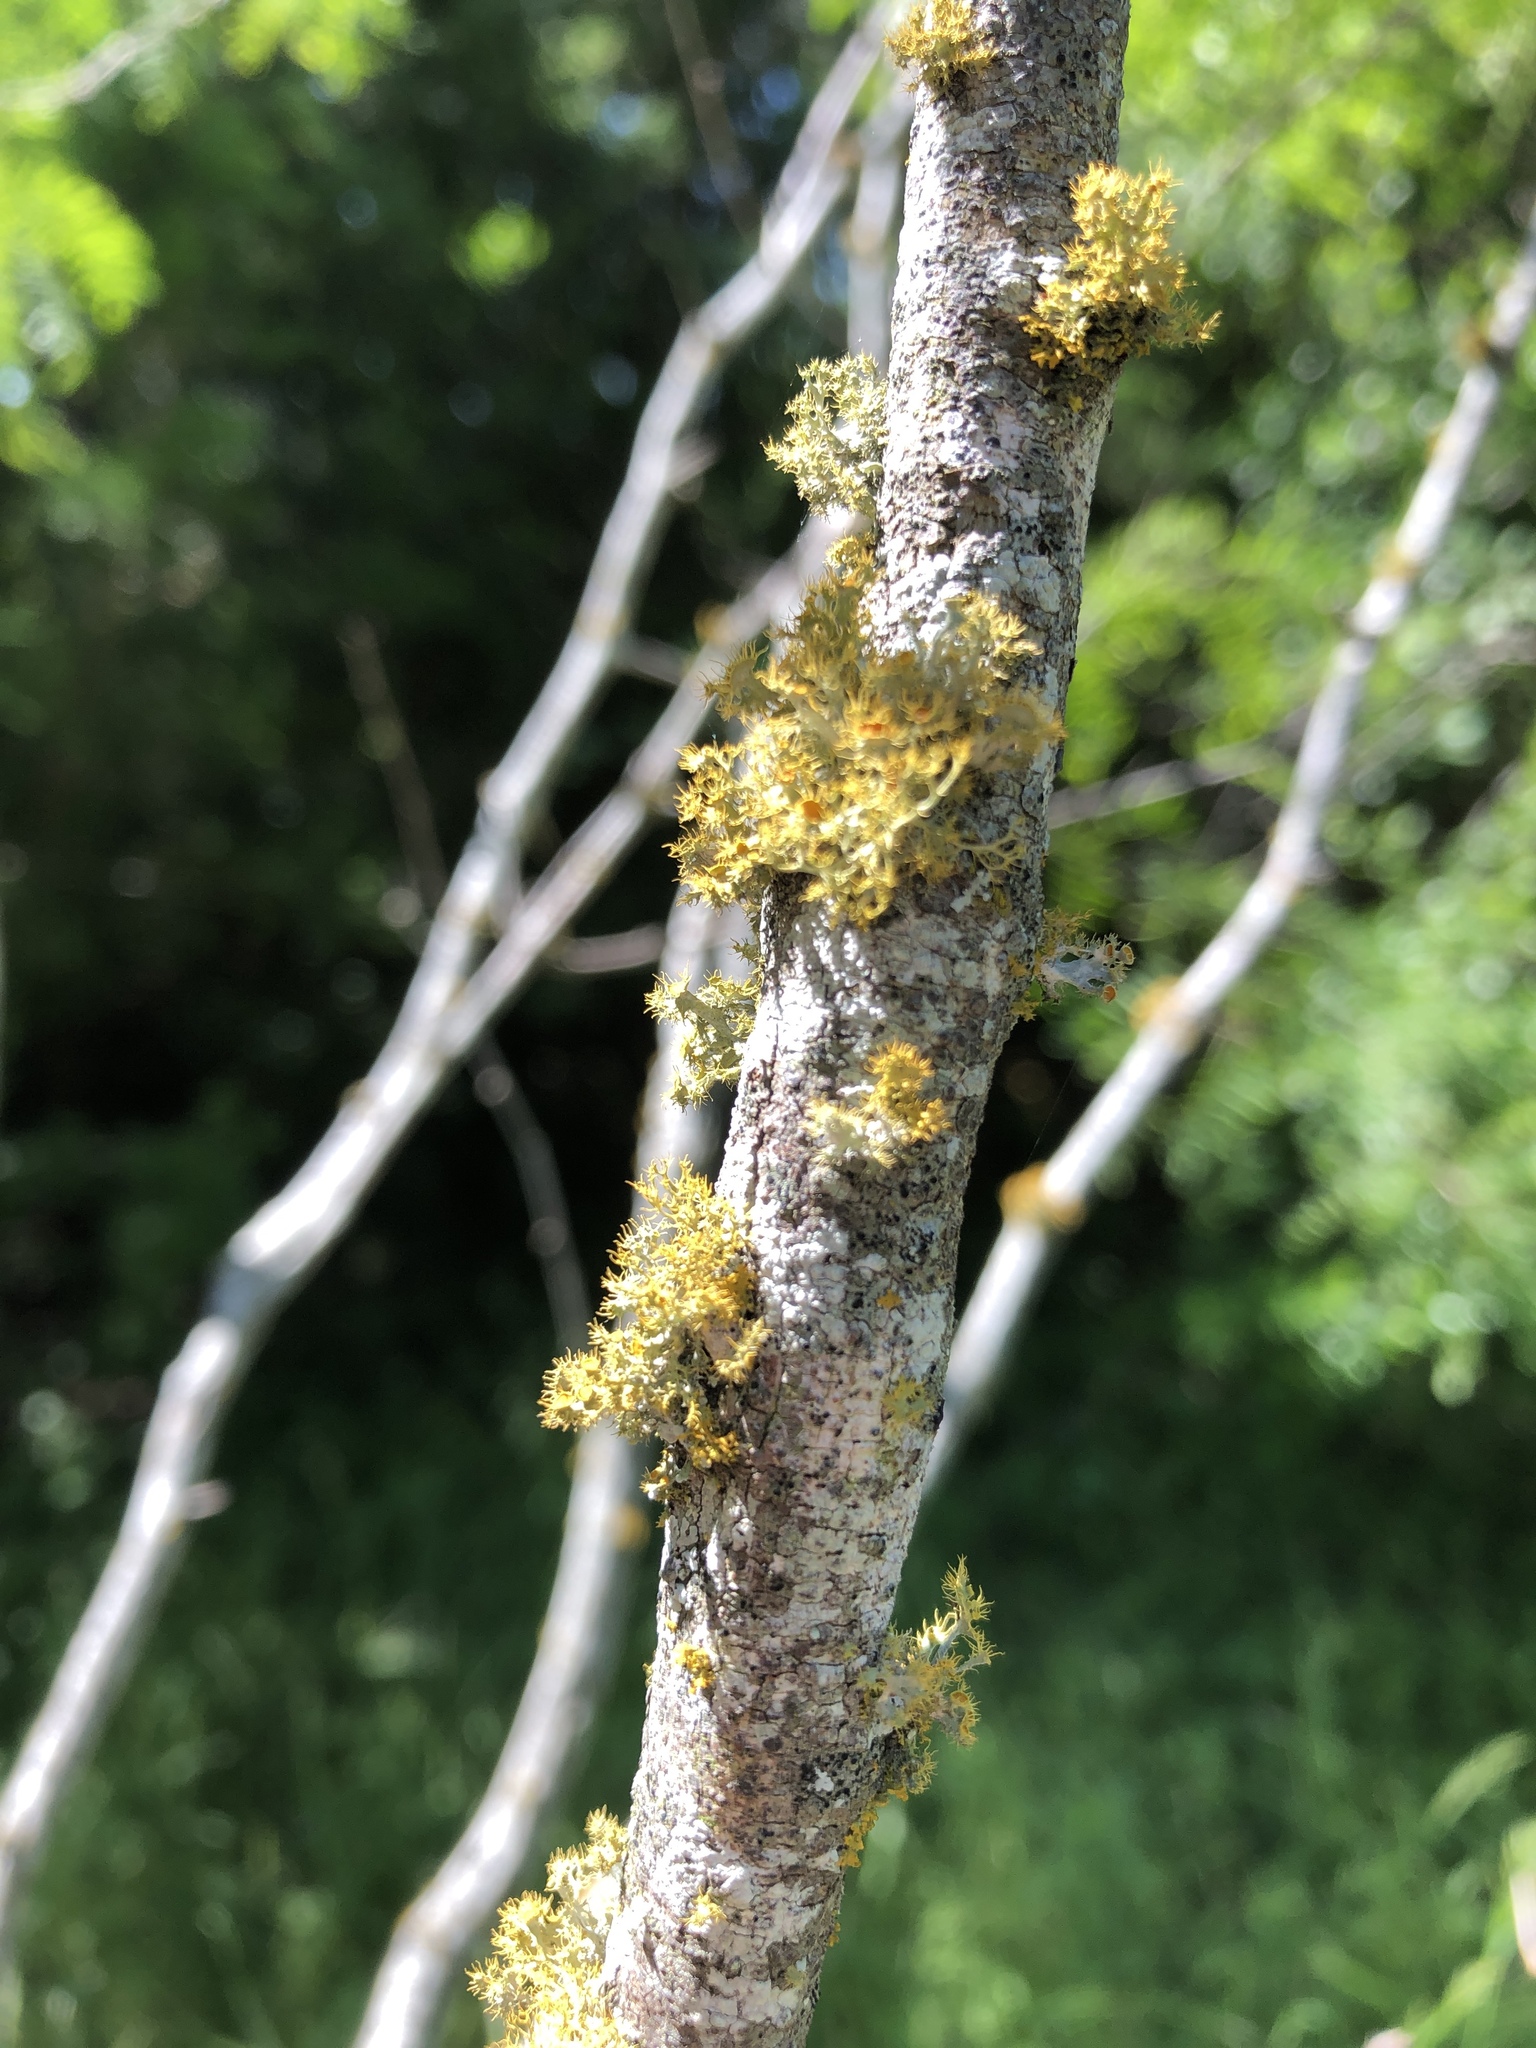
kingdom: Fungi
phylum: Ascomycota
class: Lecanoromycetes
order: Teloschistales
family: Teloschistaceae
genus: Niorma
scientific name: Niorma chrysophthalma
